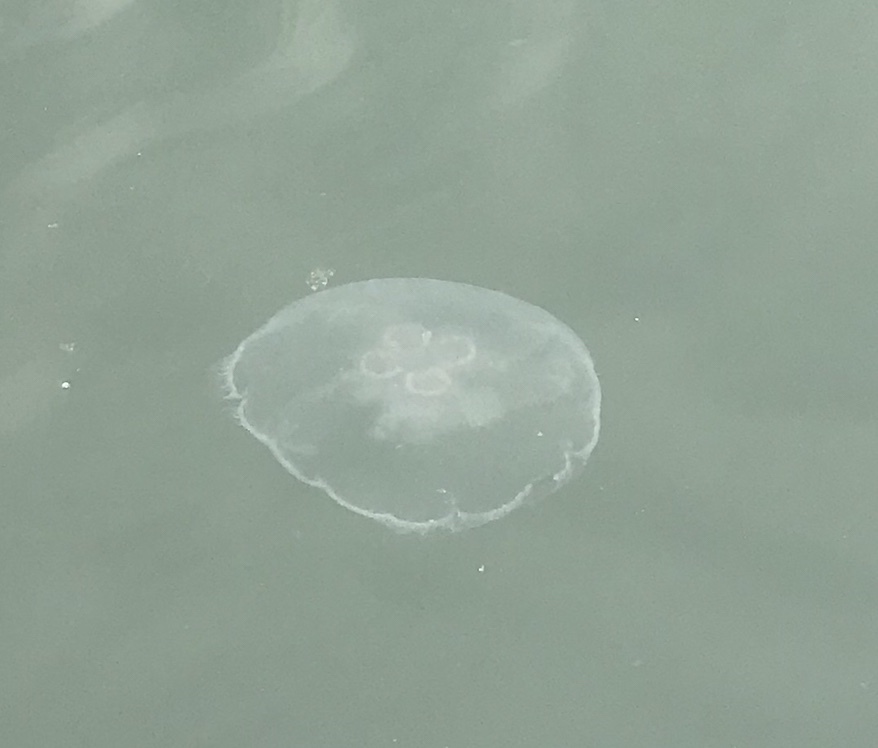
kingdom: Animalia
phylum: Cnidaria
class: Scyphozoa
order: Semaeostomeae
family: Ulmaridae
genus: Aurelia
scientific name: Aurelia labiata
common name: Pacific moon jelly
